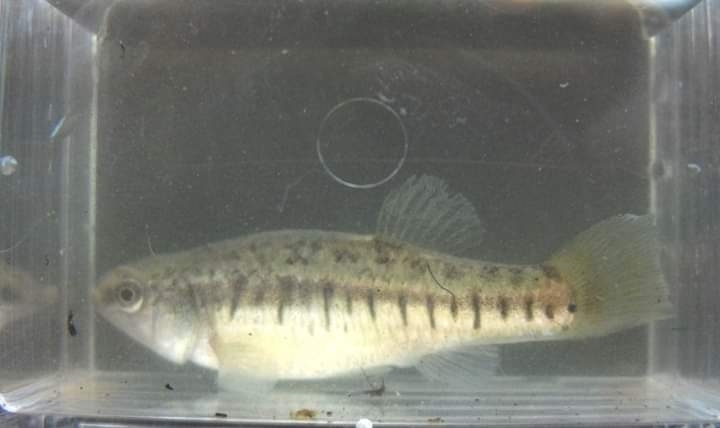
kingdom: Animalia
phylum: Chordata
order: Cyprinodontiformes
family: Cyprinodontidae
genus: Aphanius
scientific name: Aphanius fasciatus
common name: Mediterranean banded killifish
